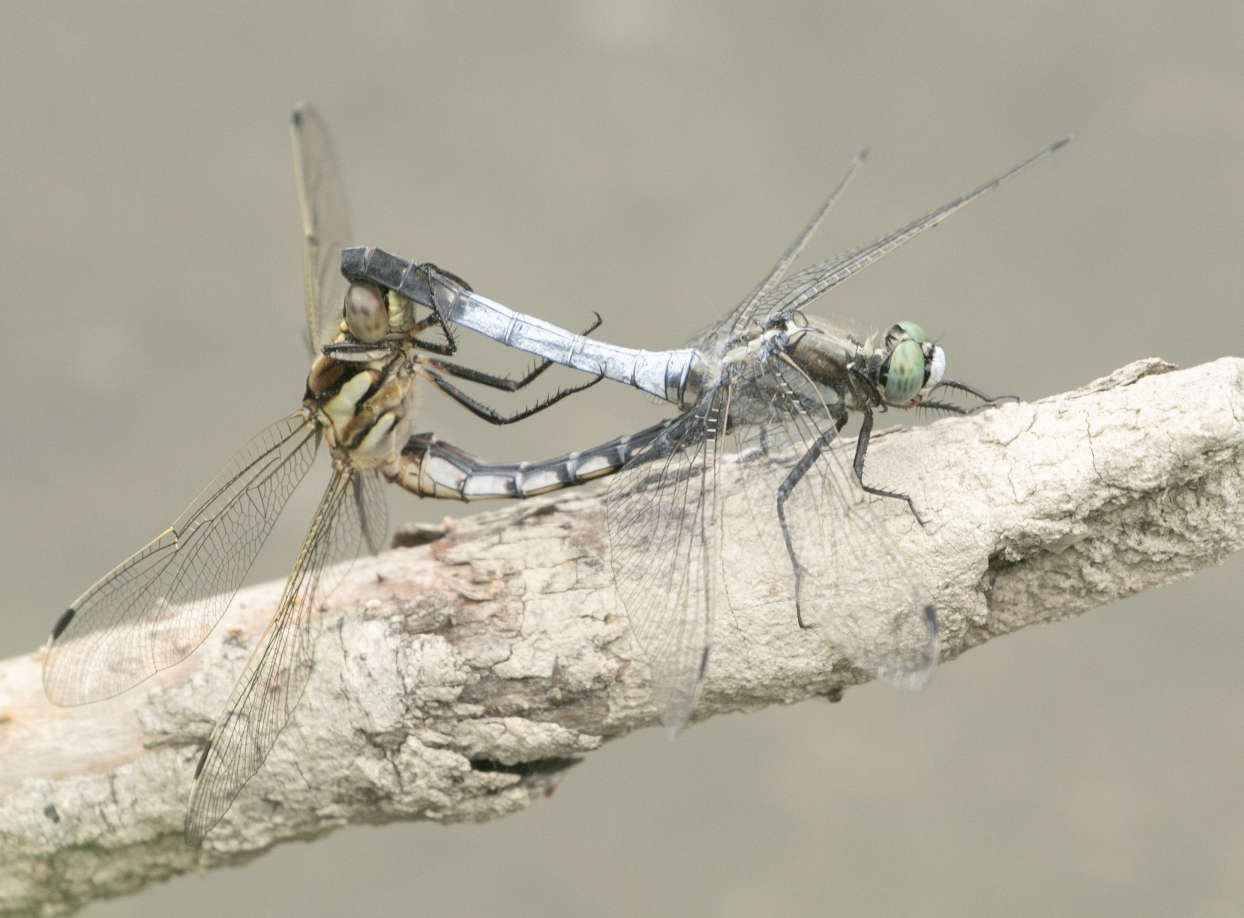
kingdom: Animalia
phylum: Arthropoda
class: Insecta
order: Odonata
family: Libellulidae
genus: Orthetrum
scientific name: Orthetrum albistylum
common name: White-tailed skimmer
